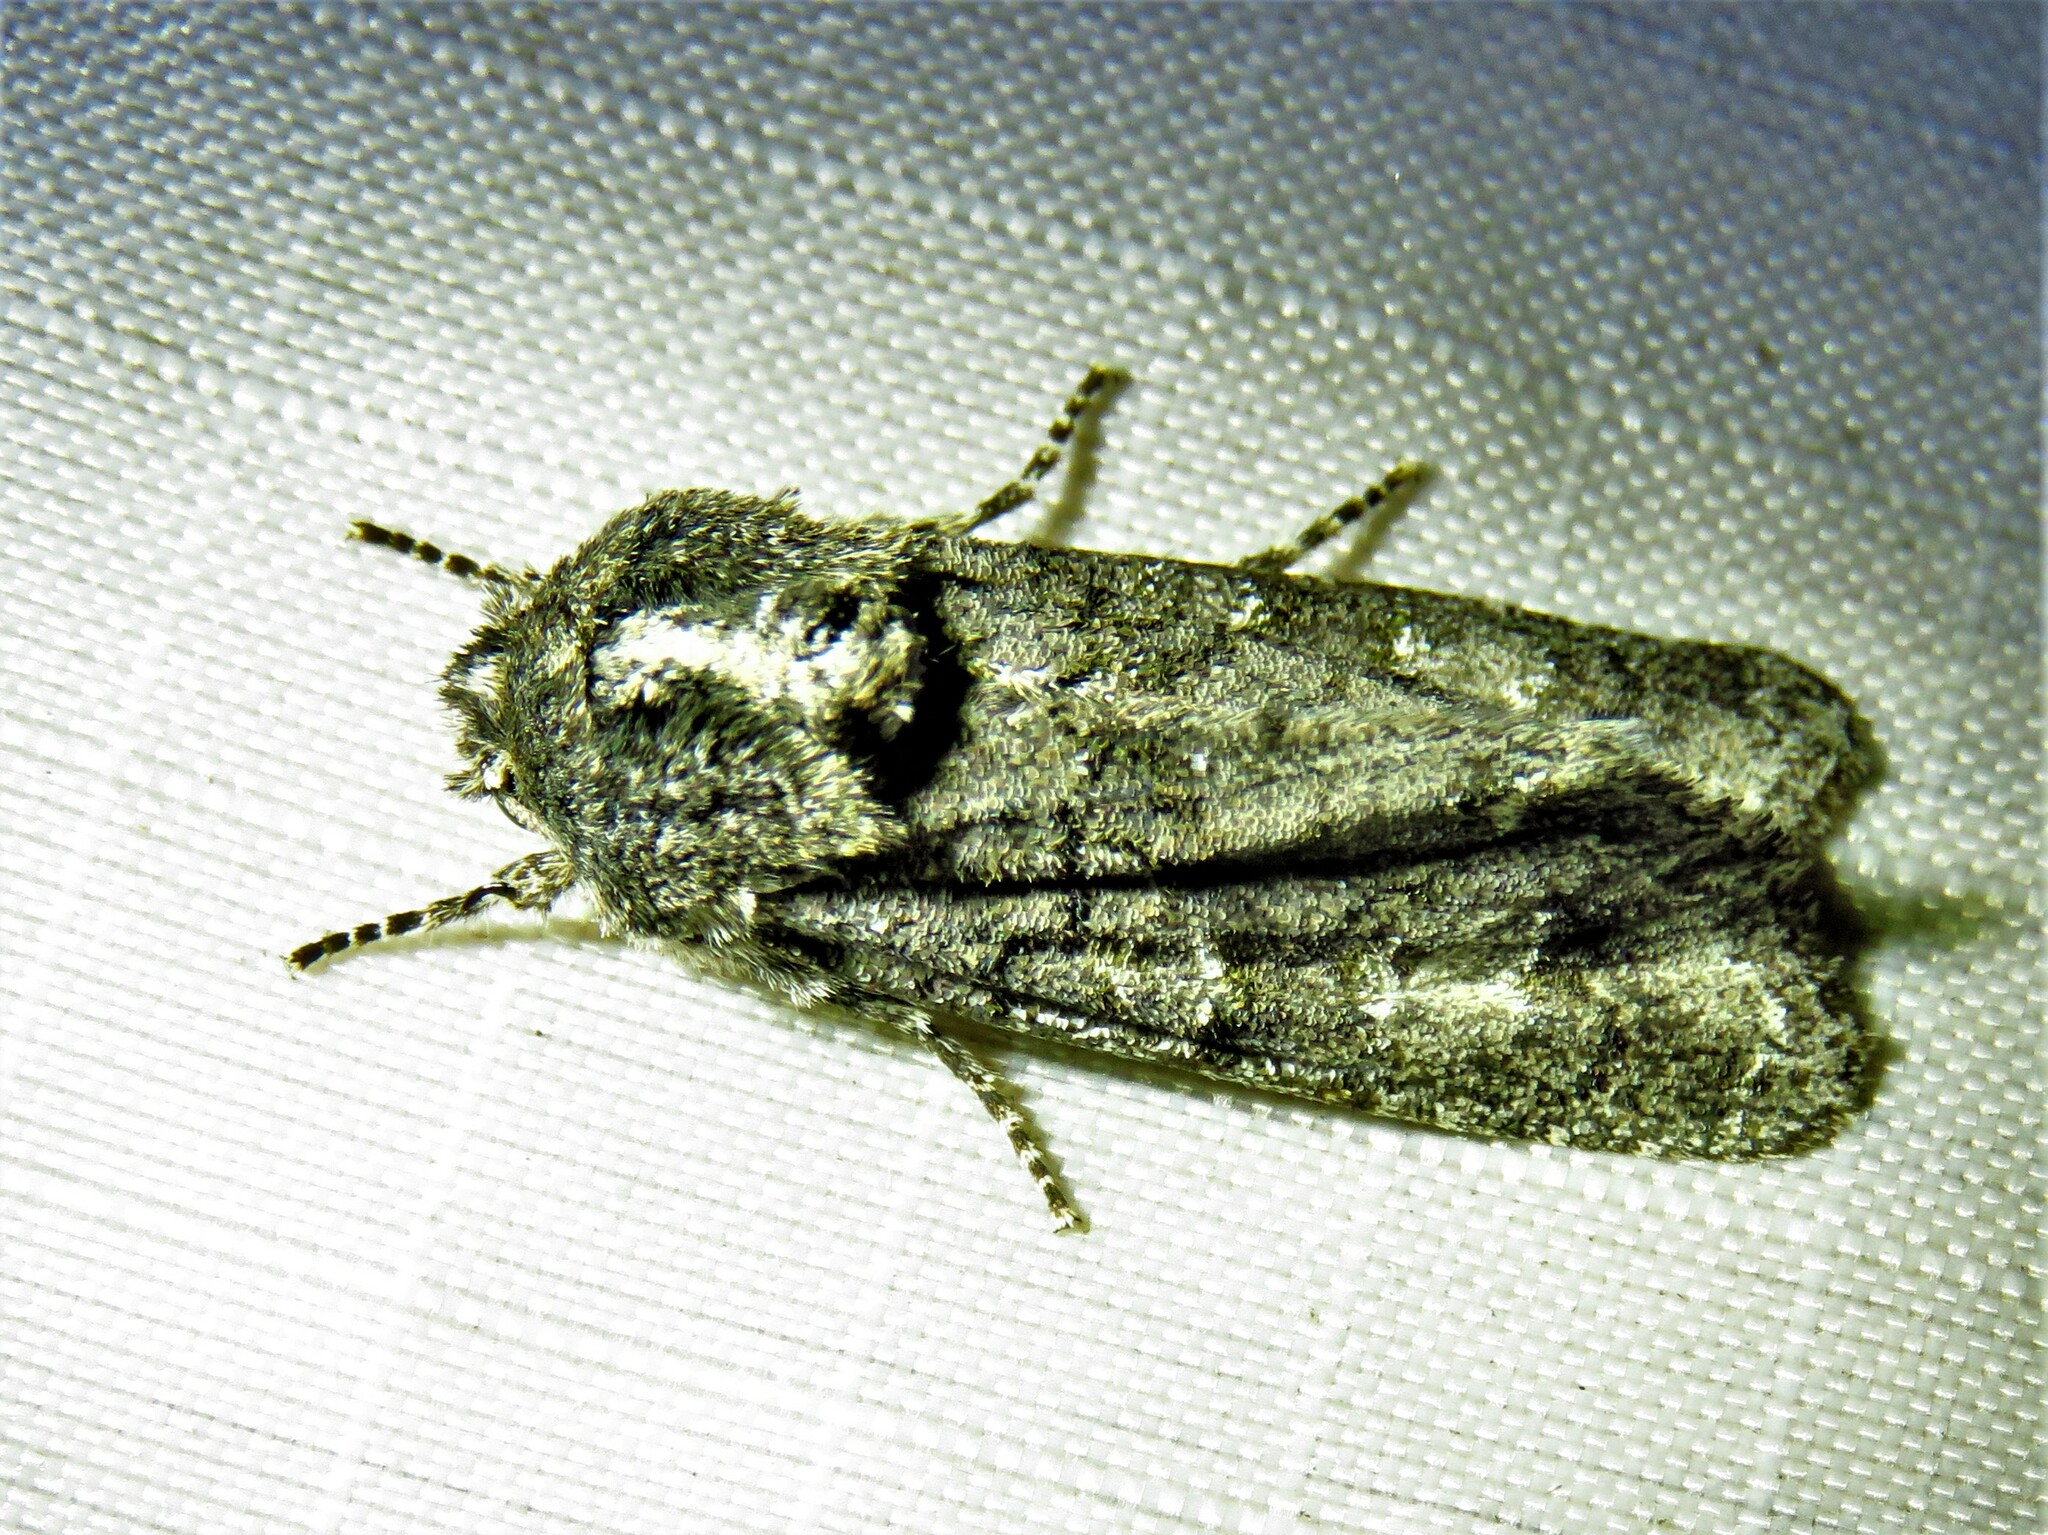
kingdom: Animalia
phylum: Arthropoda
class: Insecta
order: Lepidoptera
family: Noctuidae
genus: Psaphida
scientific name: Psaphida grotei
